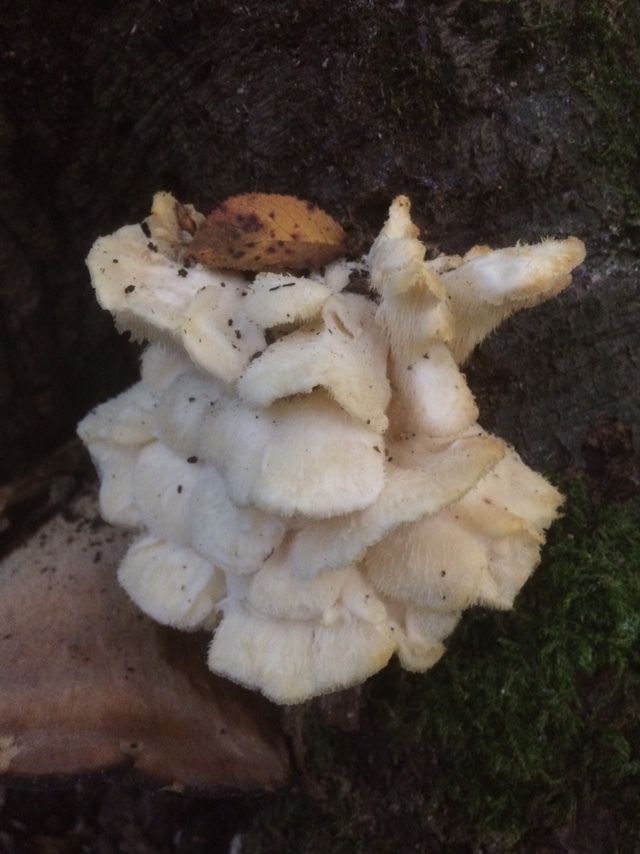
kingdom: Fungi
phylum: Basidiomycota
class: Agaricomycetes
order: Russulales
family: Hericiaceae
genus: Hericium
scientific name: Hericium cirrhatum
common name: Tiered tooth
